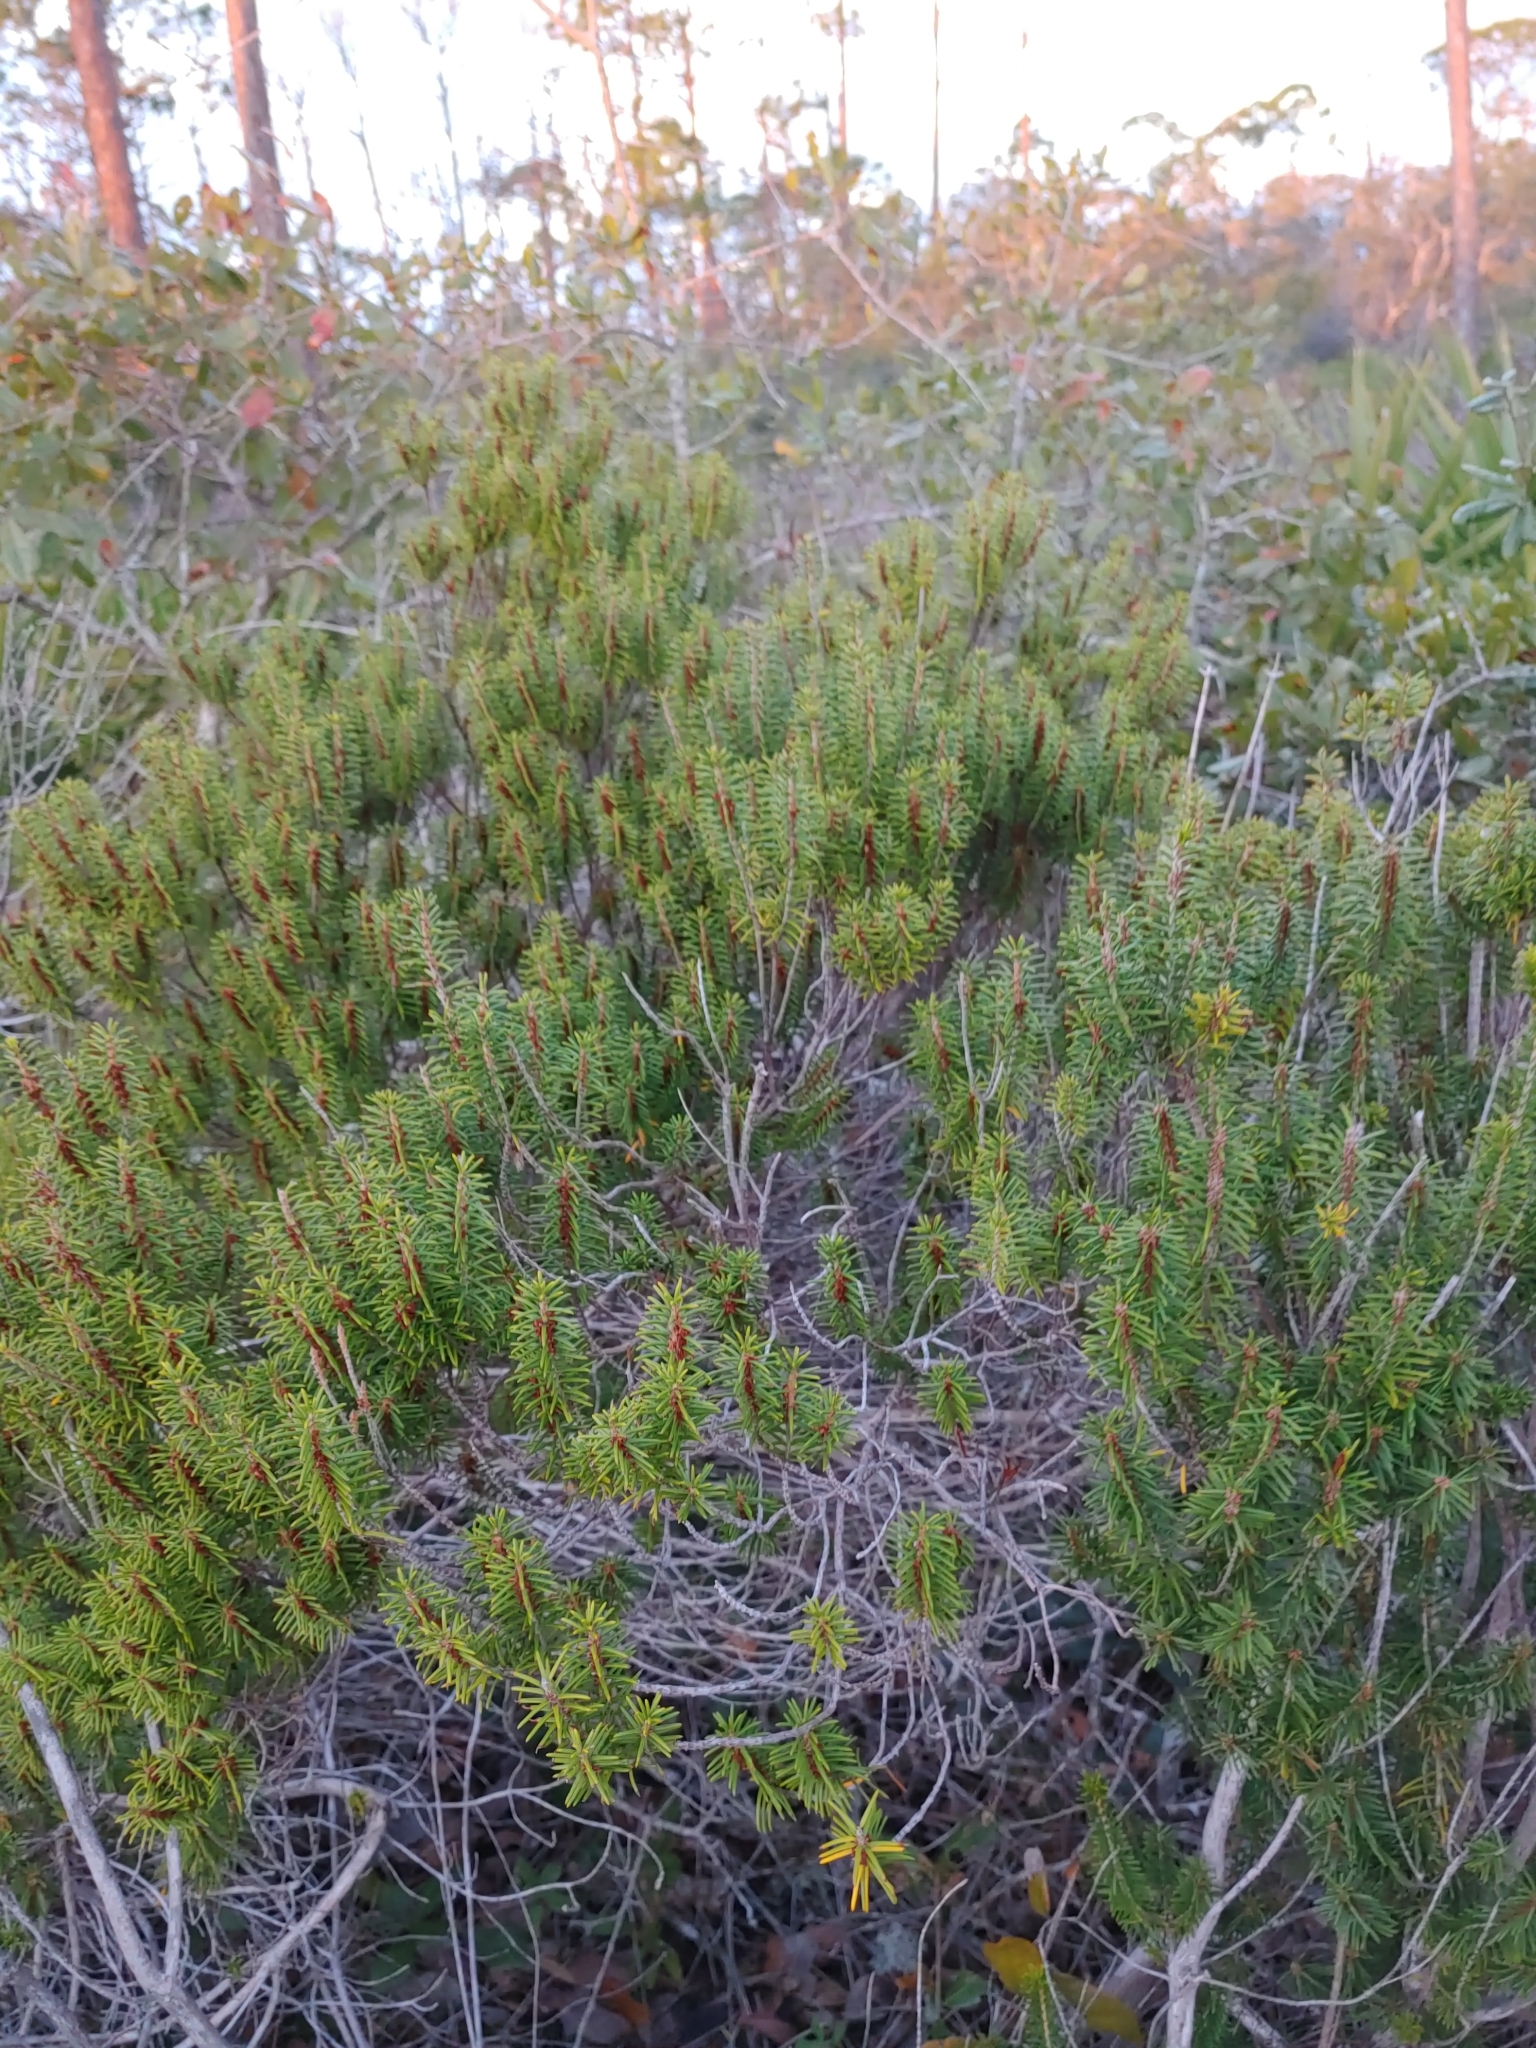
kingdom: Plantae
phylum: Tracheophyta
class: Magnoliopsida
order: Ericales
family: Ericaceae
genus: Ceratiola
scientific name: Ceratiola ericoides
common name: Sandhill-rosemary
